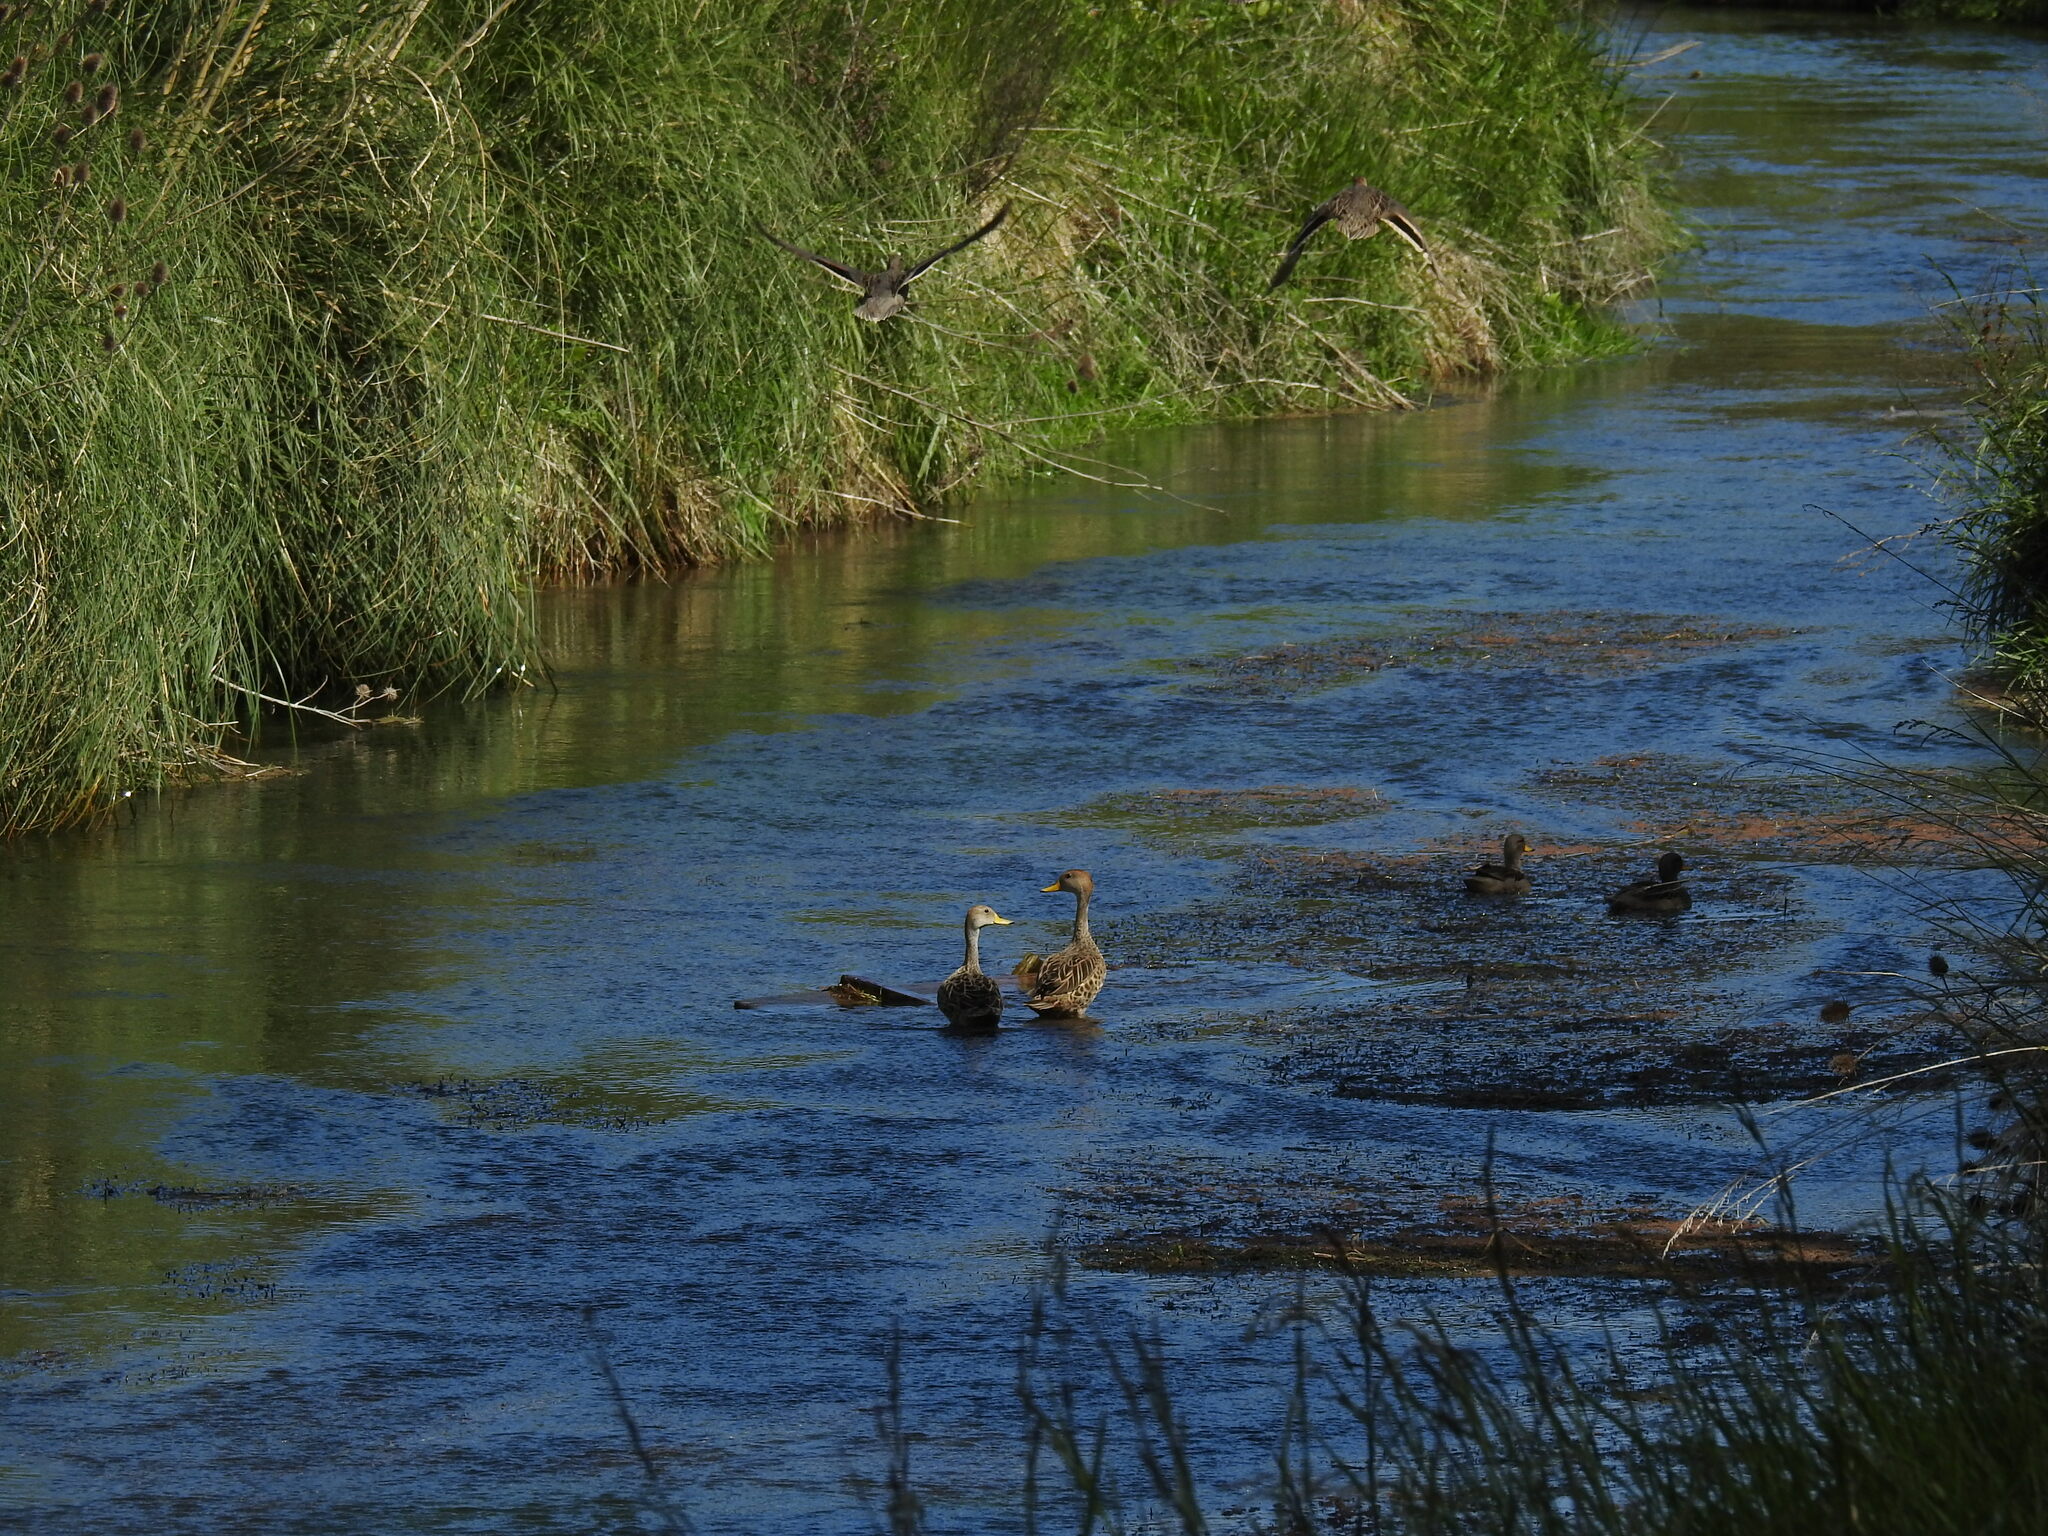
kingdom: Animalia
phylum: Chordata
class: Aves
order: Anseriformes
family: Anatidae
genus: Anas
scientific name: Anas flavirostris
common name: Yellow-billed teal
